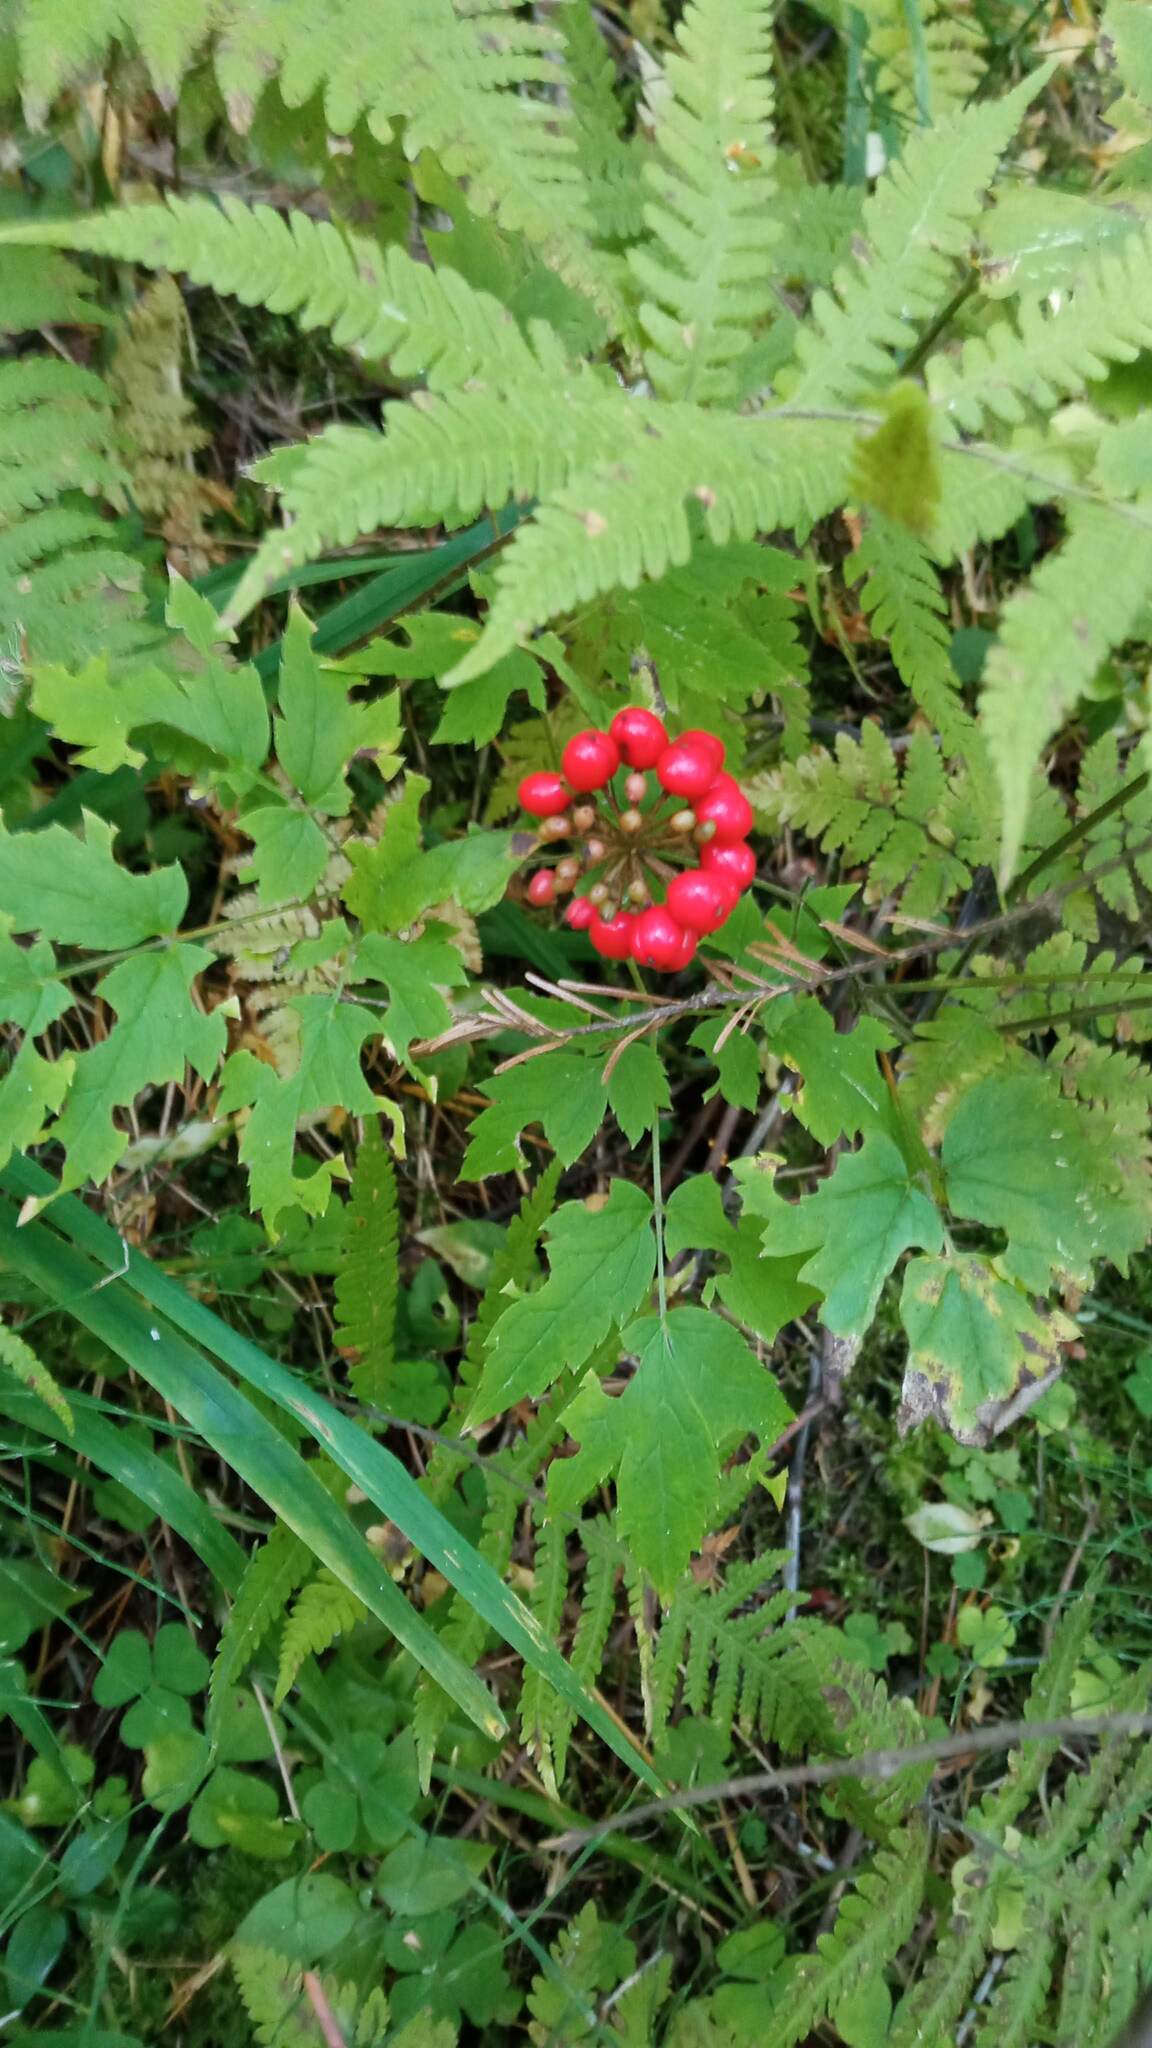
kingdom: Plantae
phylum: Tracheophyta
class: Magnoliopsida
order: Ranunculales
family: Ranunculaceae
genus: Actaea
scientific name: Actaea erythrocarpa
